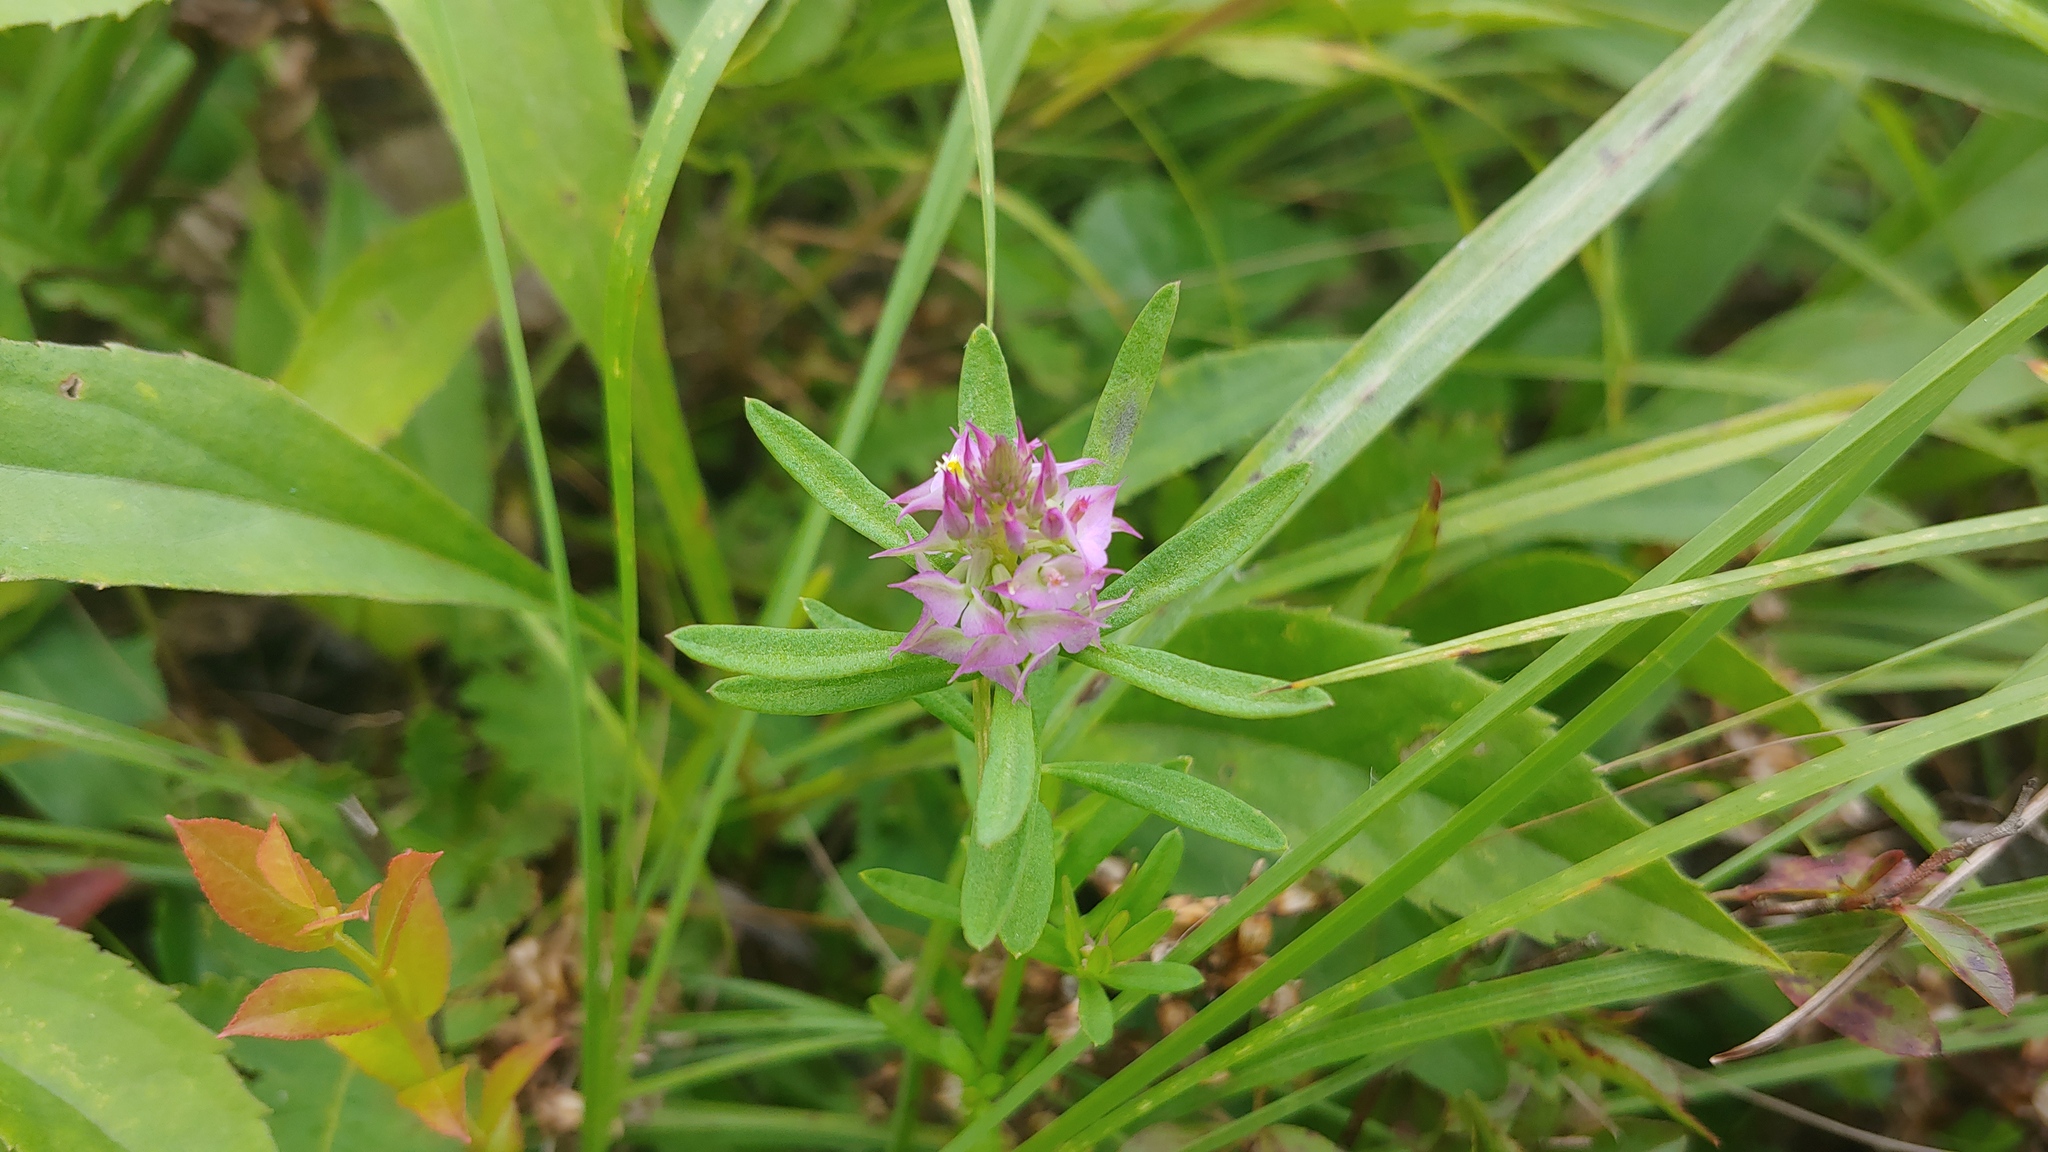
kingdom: Plantae
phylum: Tracheophyta
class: Magnoliopsida
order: Fabales
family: Polygalaceae
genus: Polygala
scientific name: Polygala cruciata
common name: Drumheads
